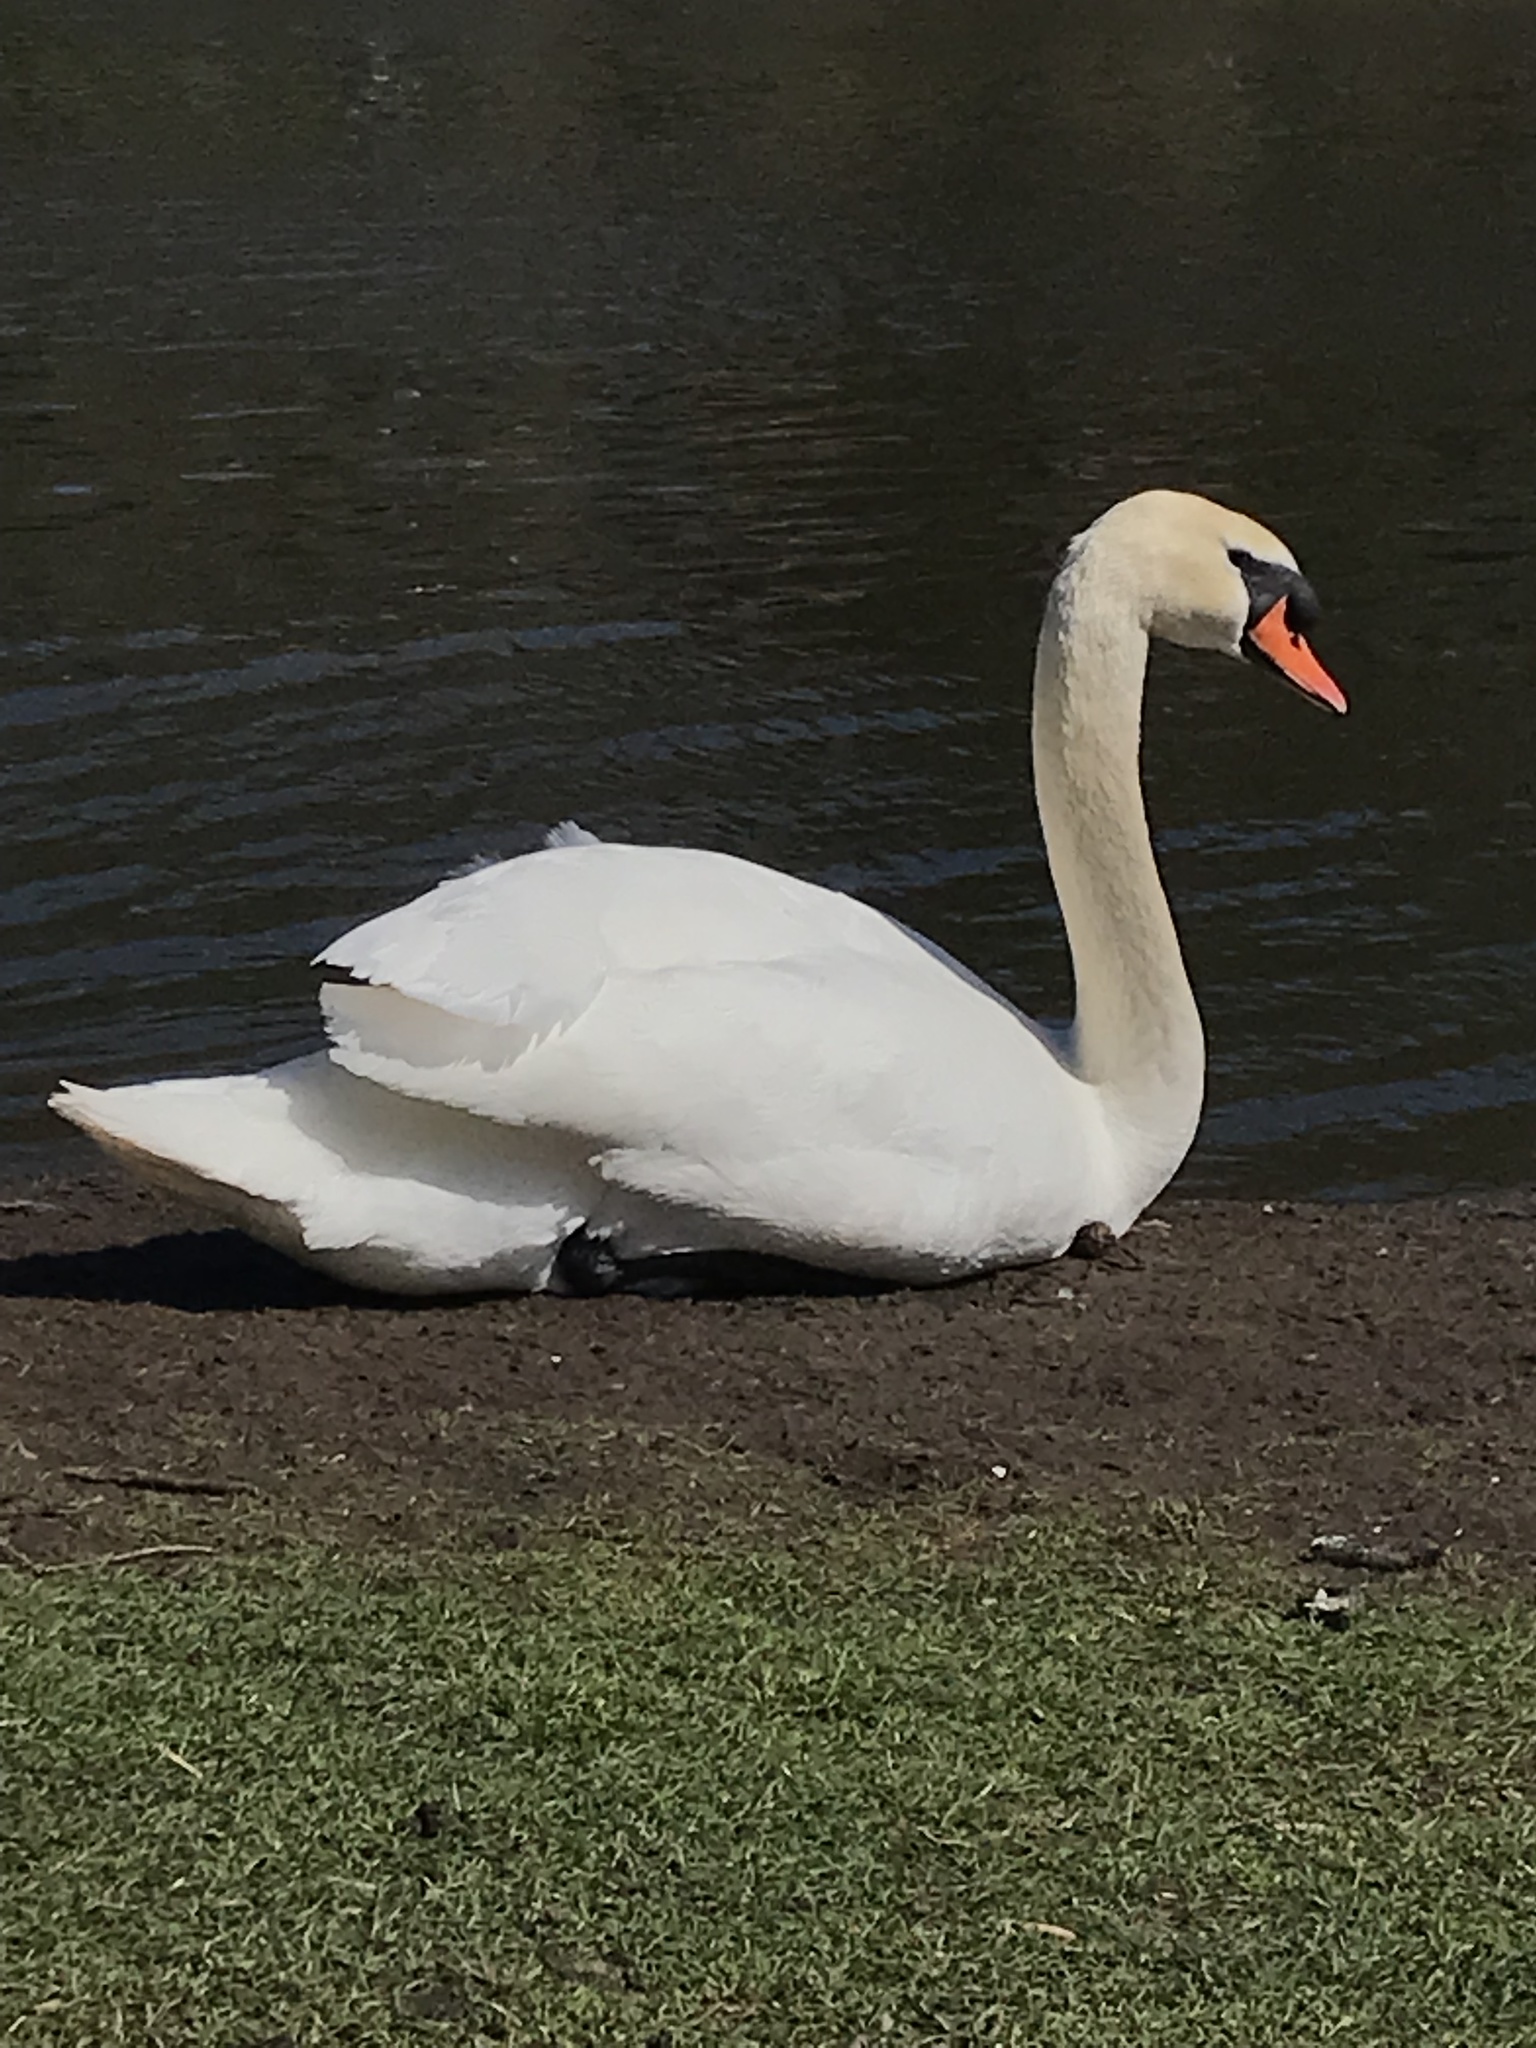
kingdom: Animalia
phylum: Chordata
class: Aves
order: Anseriformes
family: Anatidae
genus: Cygnus
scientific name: Cygnus olor
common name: Mute swan
